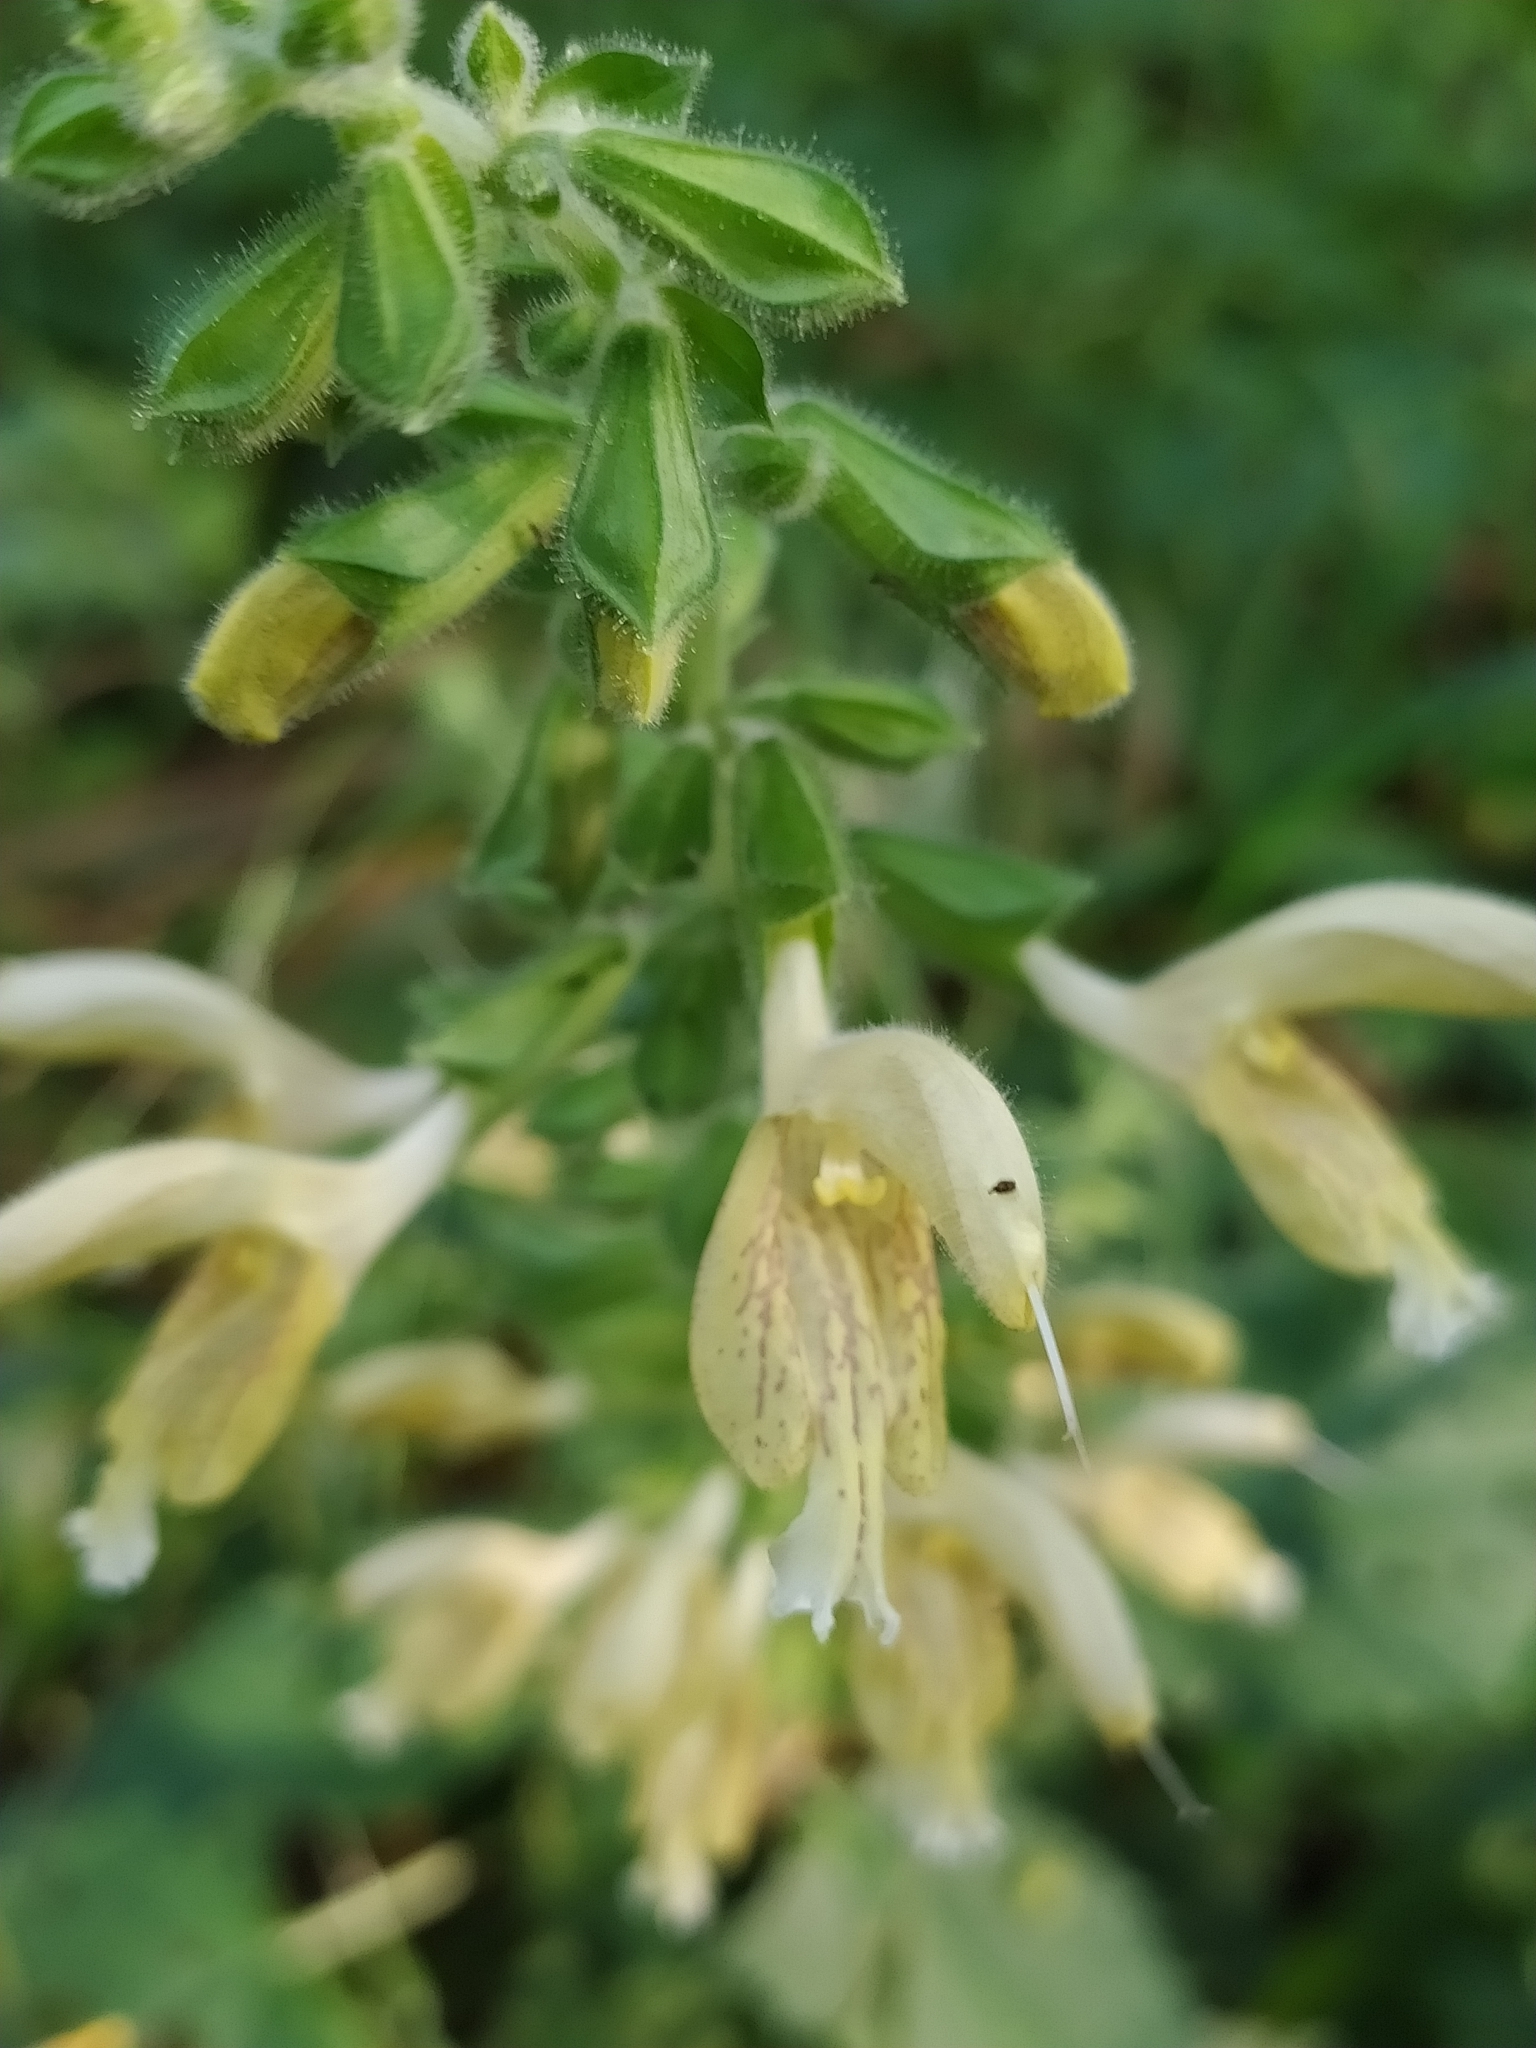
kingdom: Plantae
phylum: Tracheophyta
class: Magnoliopsida
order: Lamiales
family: Lamiaceae
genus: Salvia
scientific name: Salvia glutinosa
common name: Sticky clary
